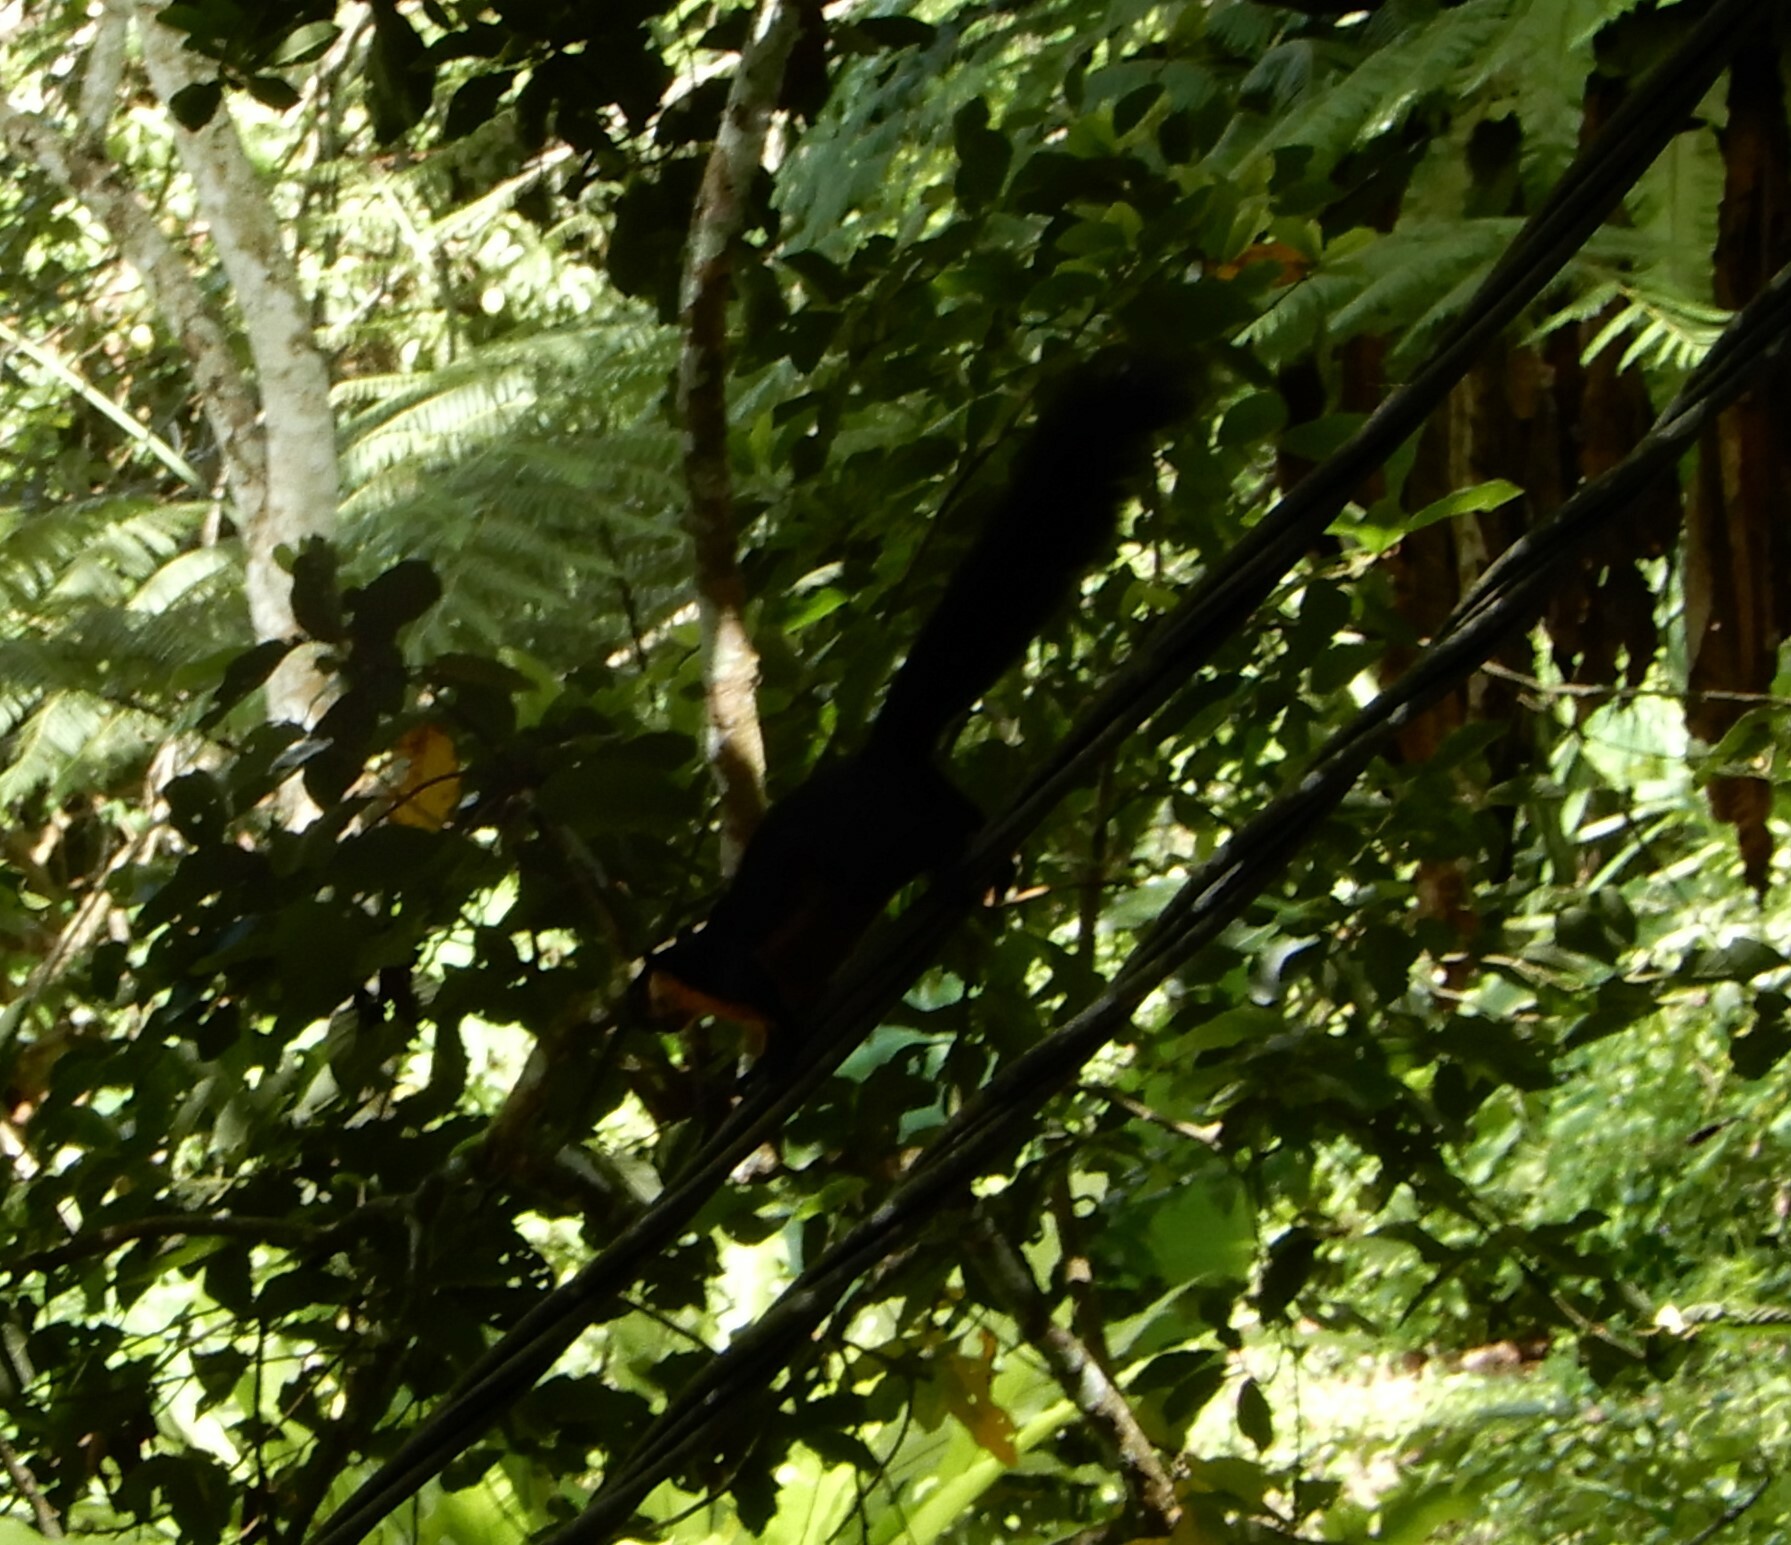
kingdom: Animalia
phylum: Chordata
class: Mammalia
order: Rodentia
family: Sciuridae
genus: Ratufa
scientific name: Ratufa bicolor
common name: Black giant squirrel
